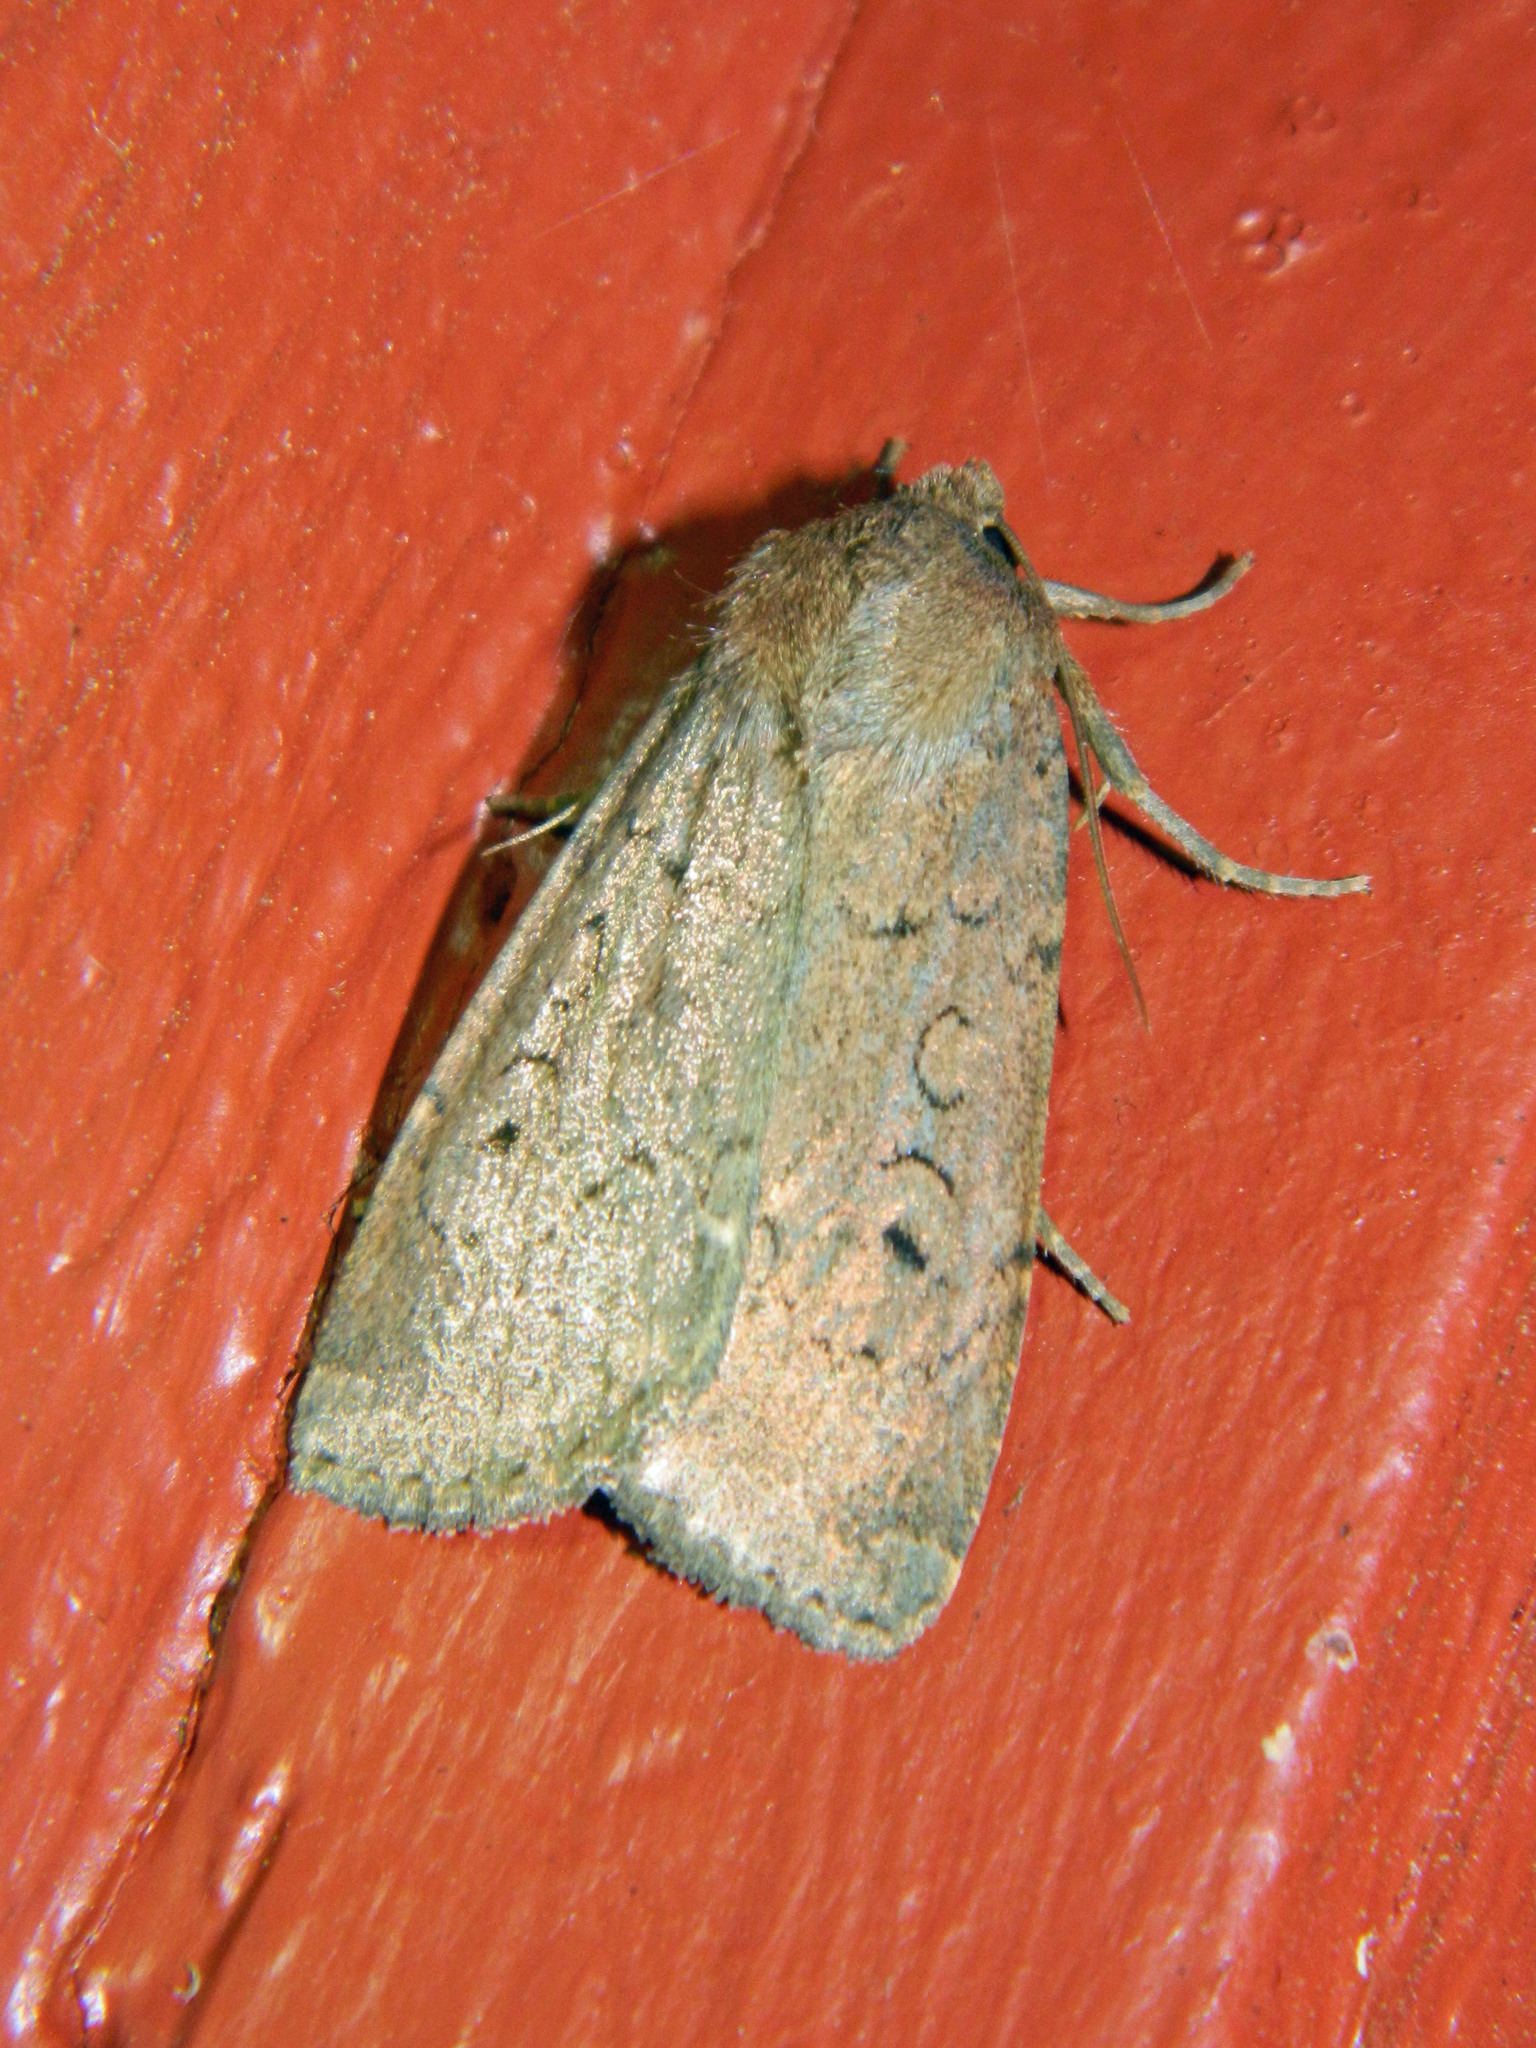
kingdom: Animalia
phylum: Arthropoda
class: Insecta
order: Lepidoptera
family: Noctuidae
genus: Graphiphora
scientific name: Graphiphora augur
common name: Double dart
